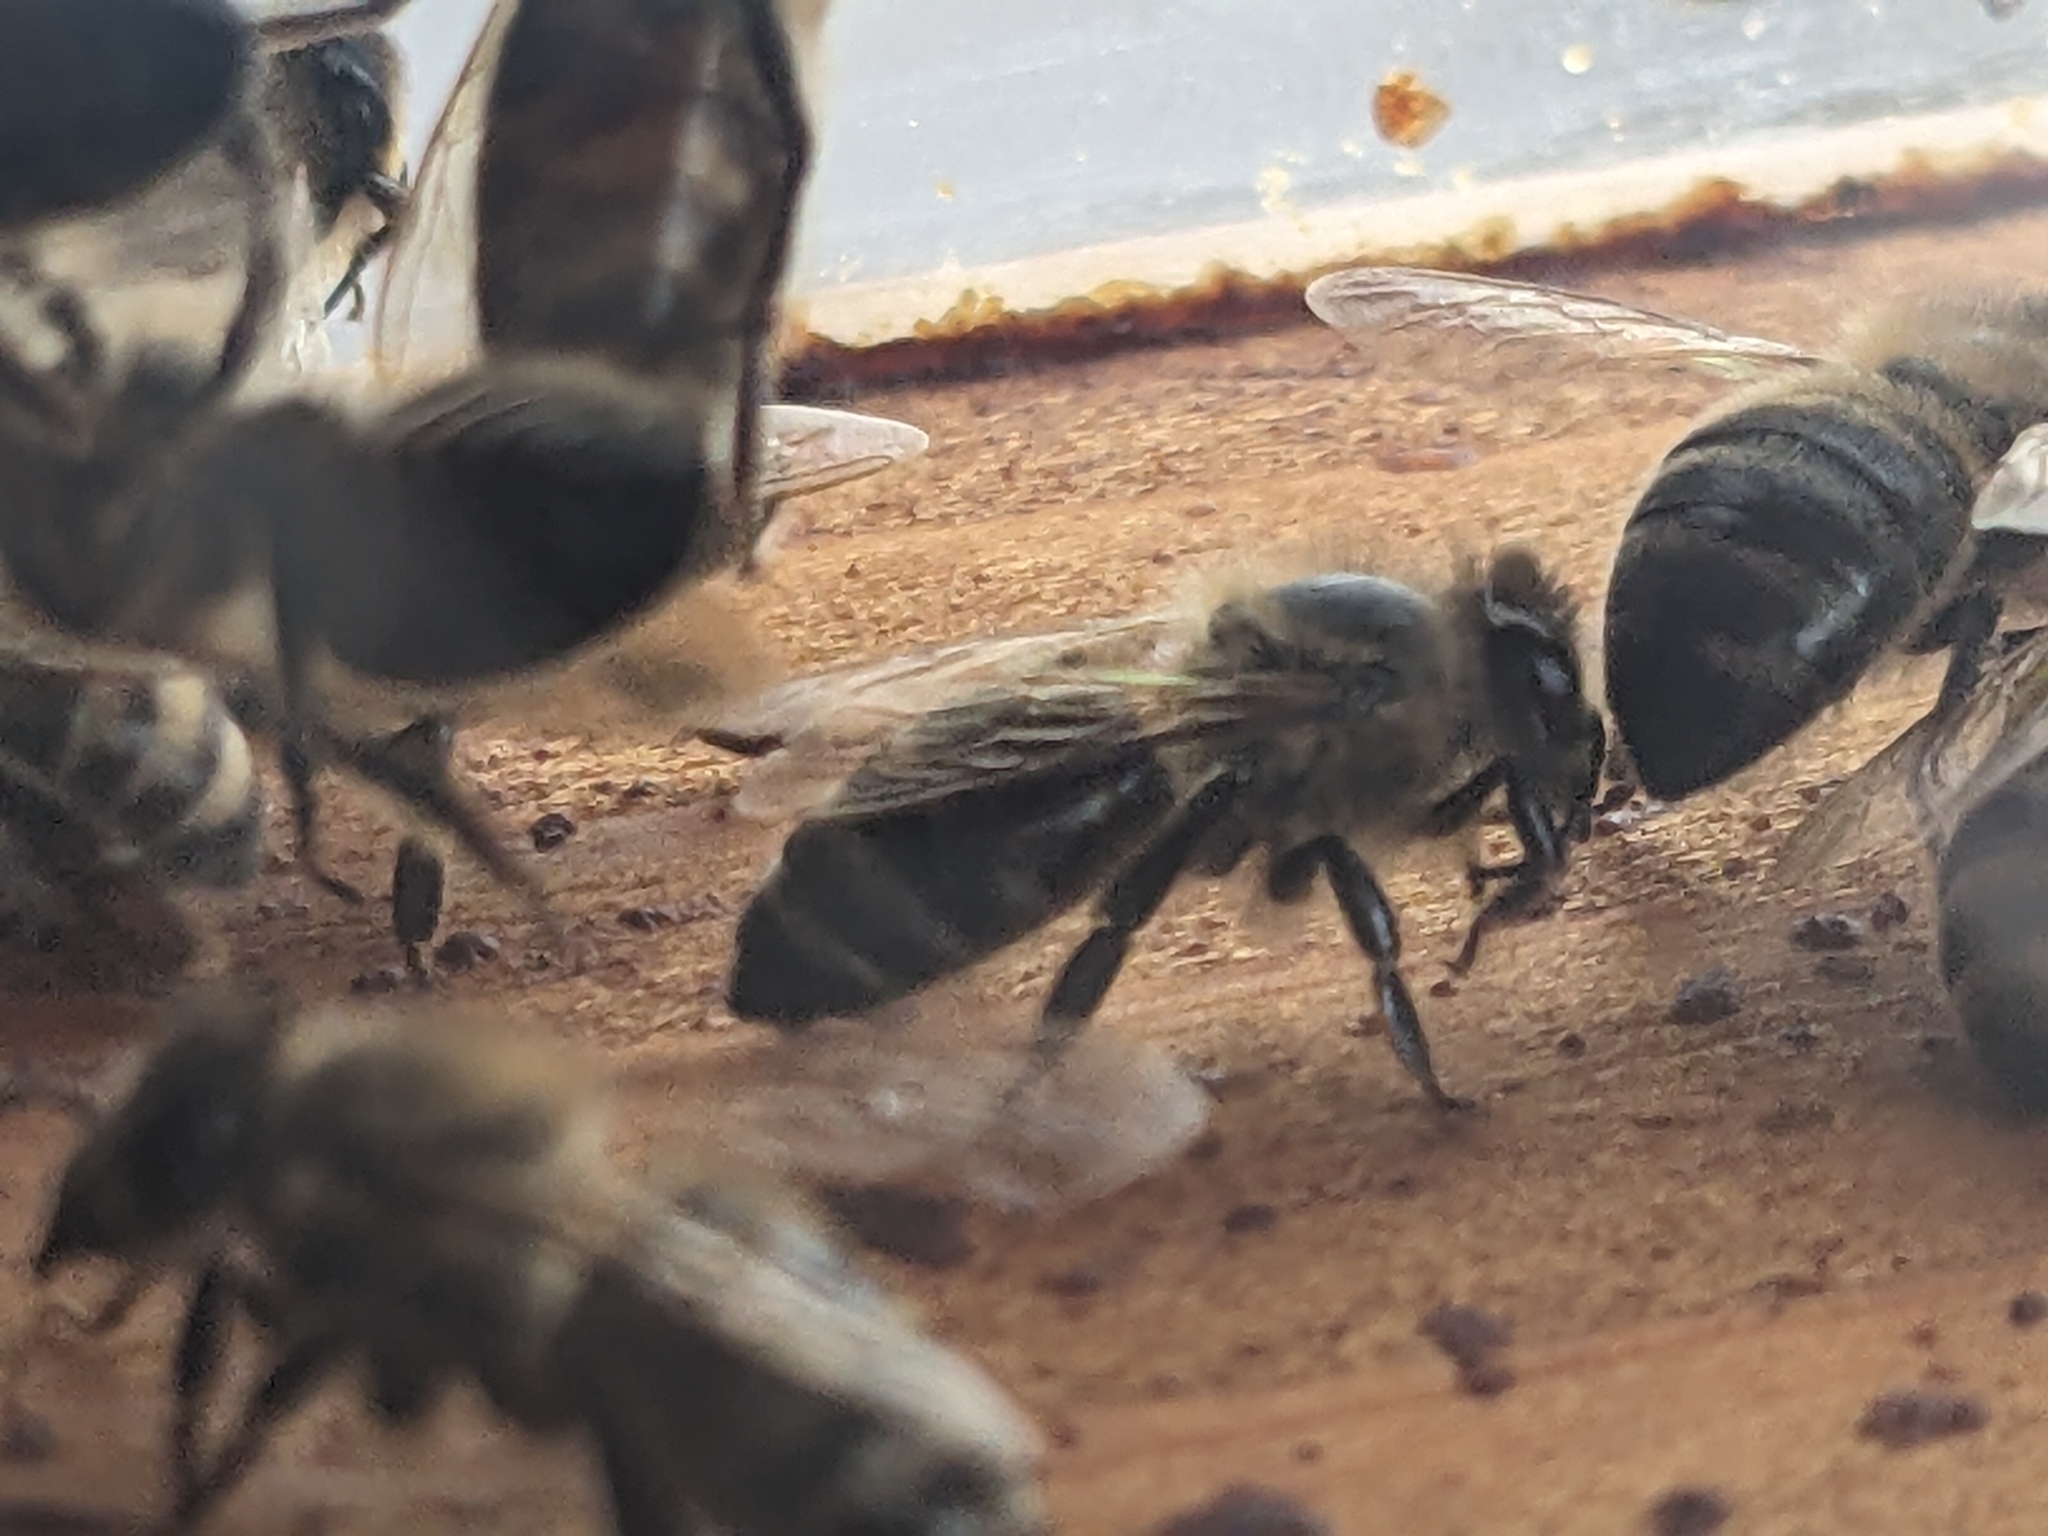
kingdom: Animalia
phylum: Arthropoda
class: Insecta
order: Hymenoptera
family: Apidae
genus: Apis
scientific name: Apis mellifera
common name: Honey bee
